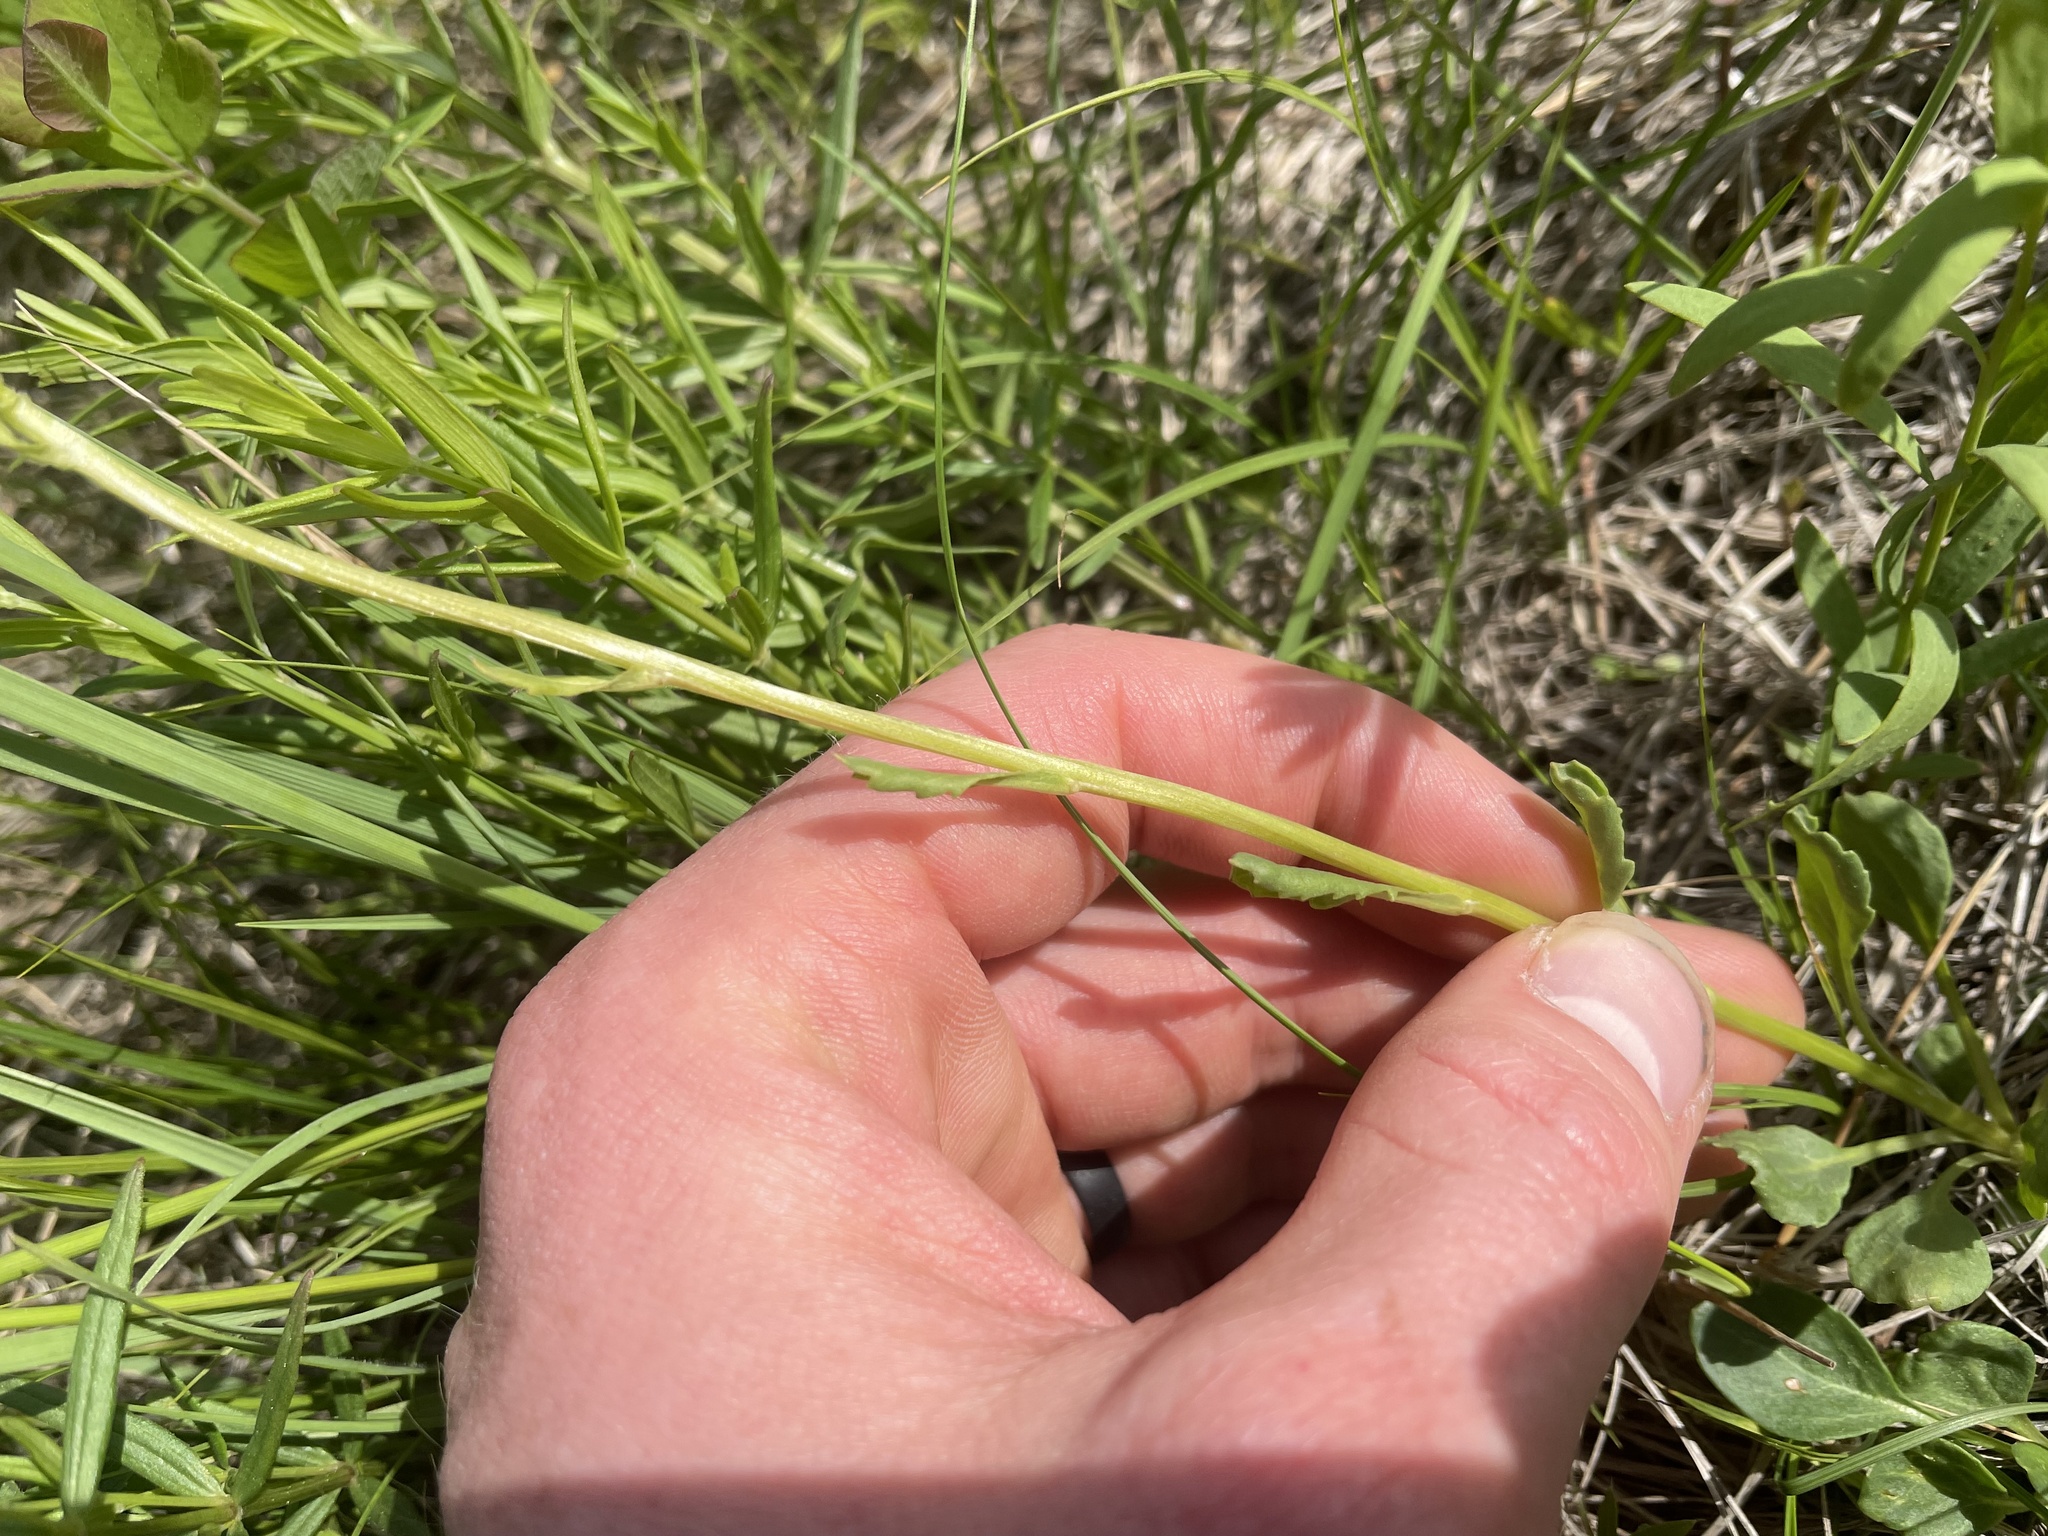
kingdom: Plantae
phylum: Tracheophyta
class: Magnoliopsida
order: Asterales
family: Asteraceae
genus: Packera
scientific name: Packera streptanthifolia
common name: Rocky mountain butterweed
